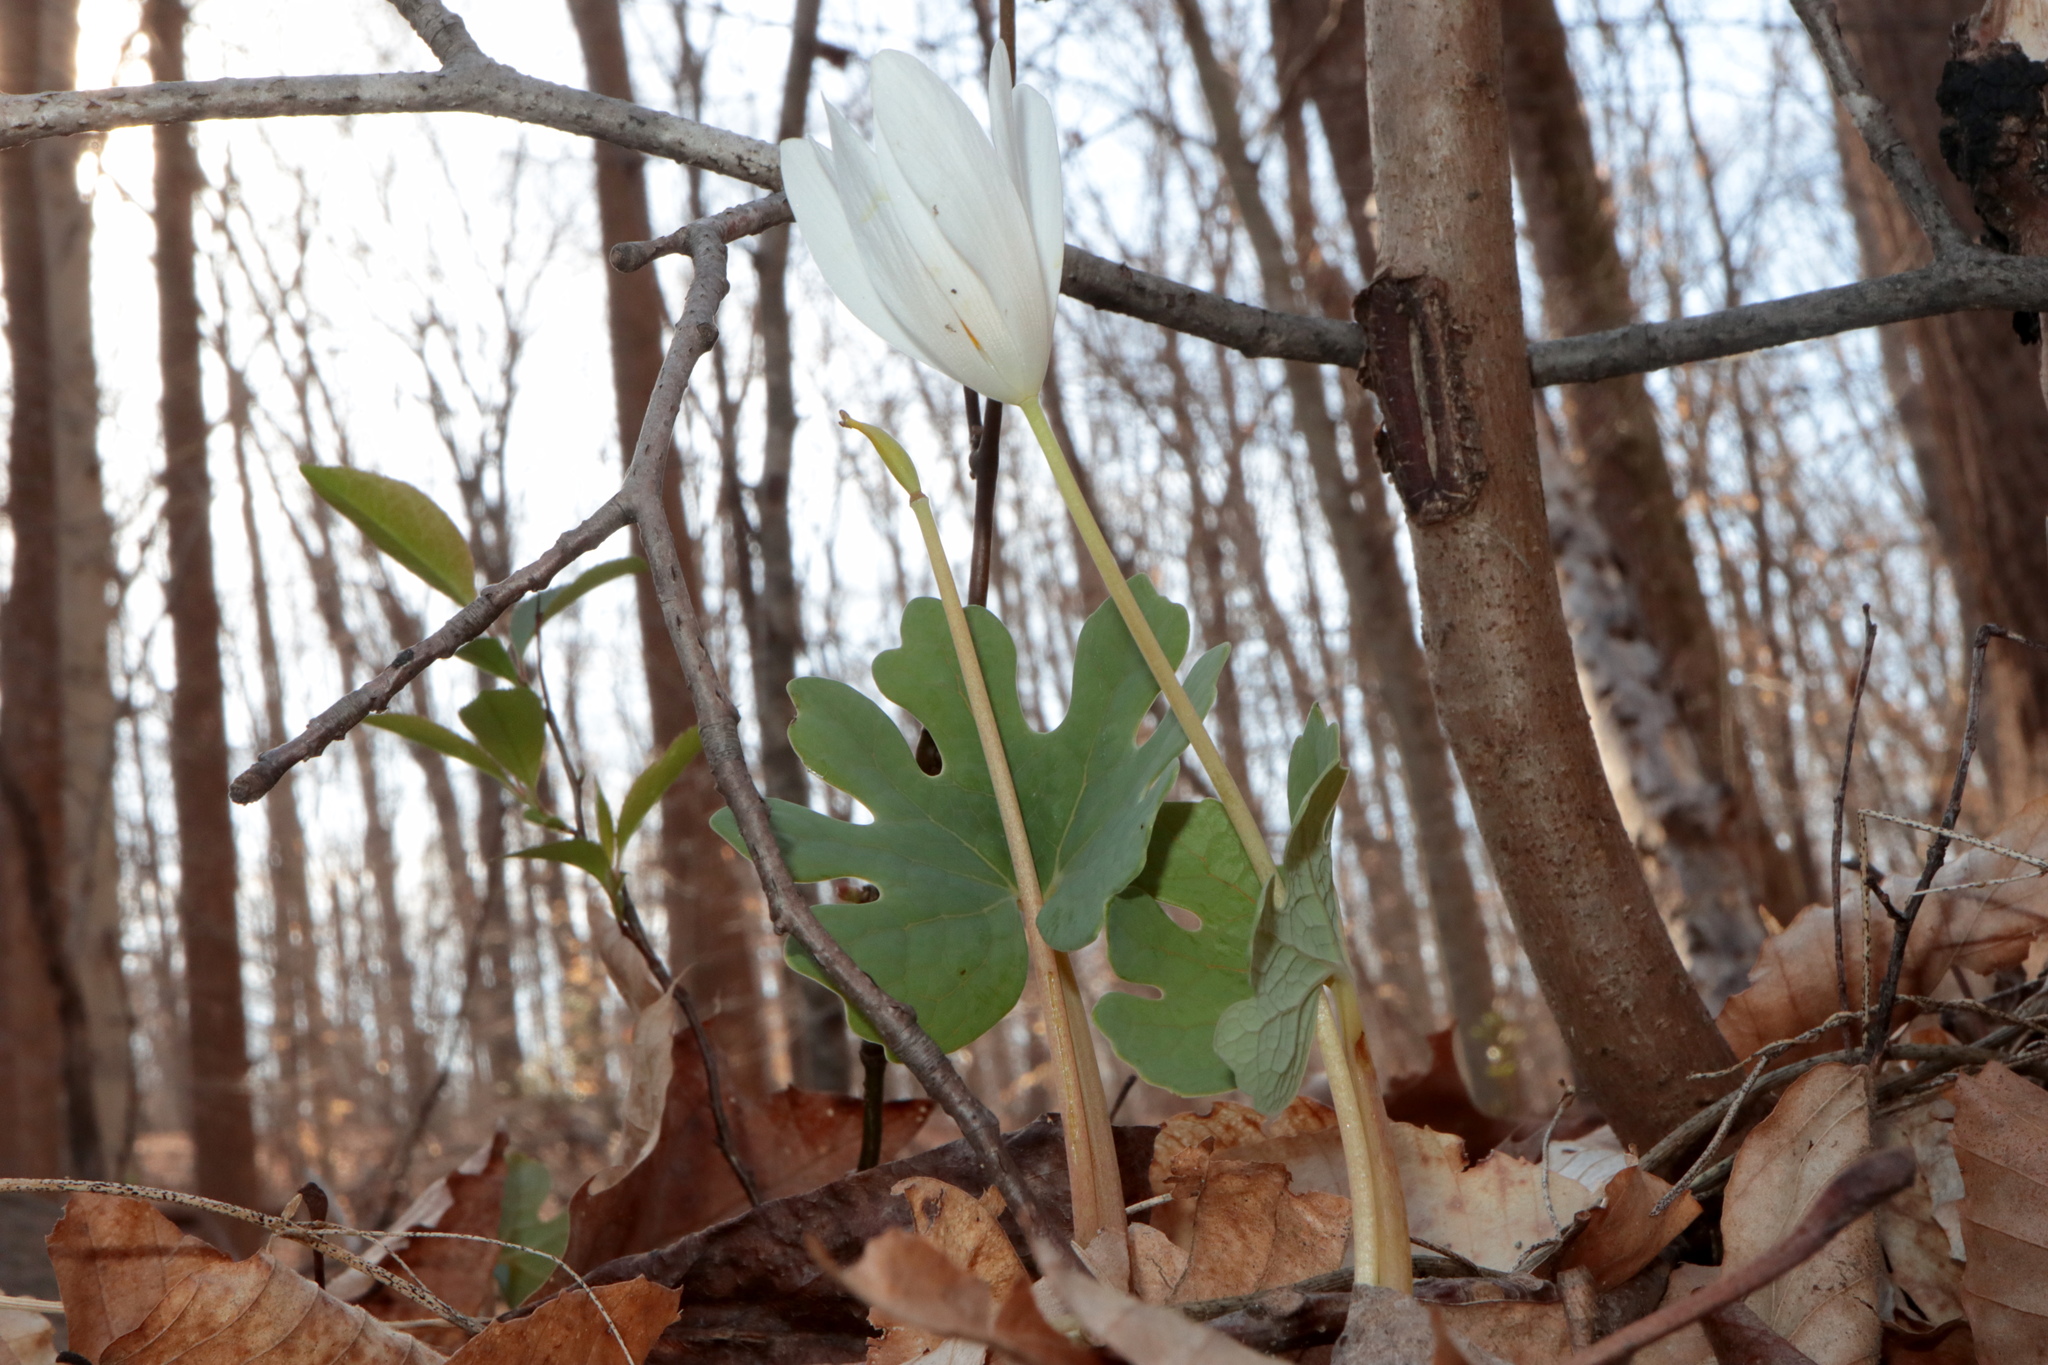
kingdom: Plantae
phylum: Tracheophyta
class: Magnoliopsida
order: Ranunculales
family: Papaveraceae
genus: Sanguinaria
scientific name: Sanguinaria canadensis
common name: Bloodroot
